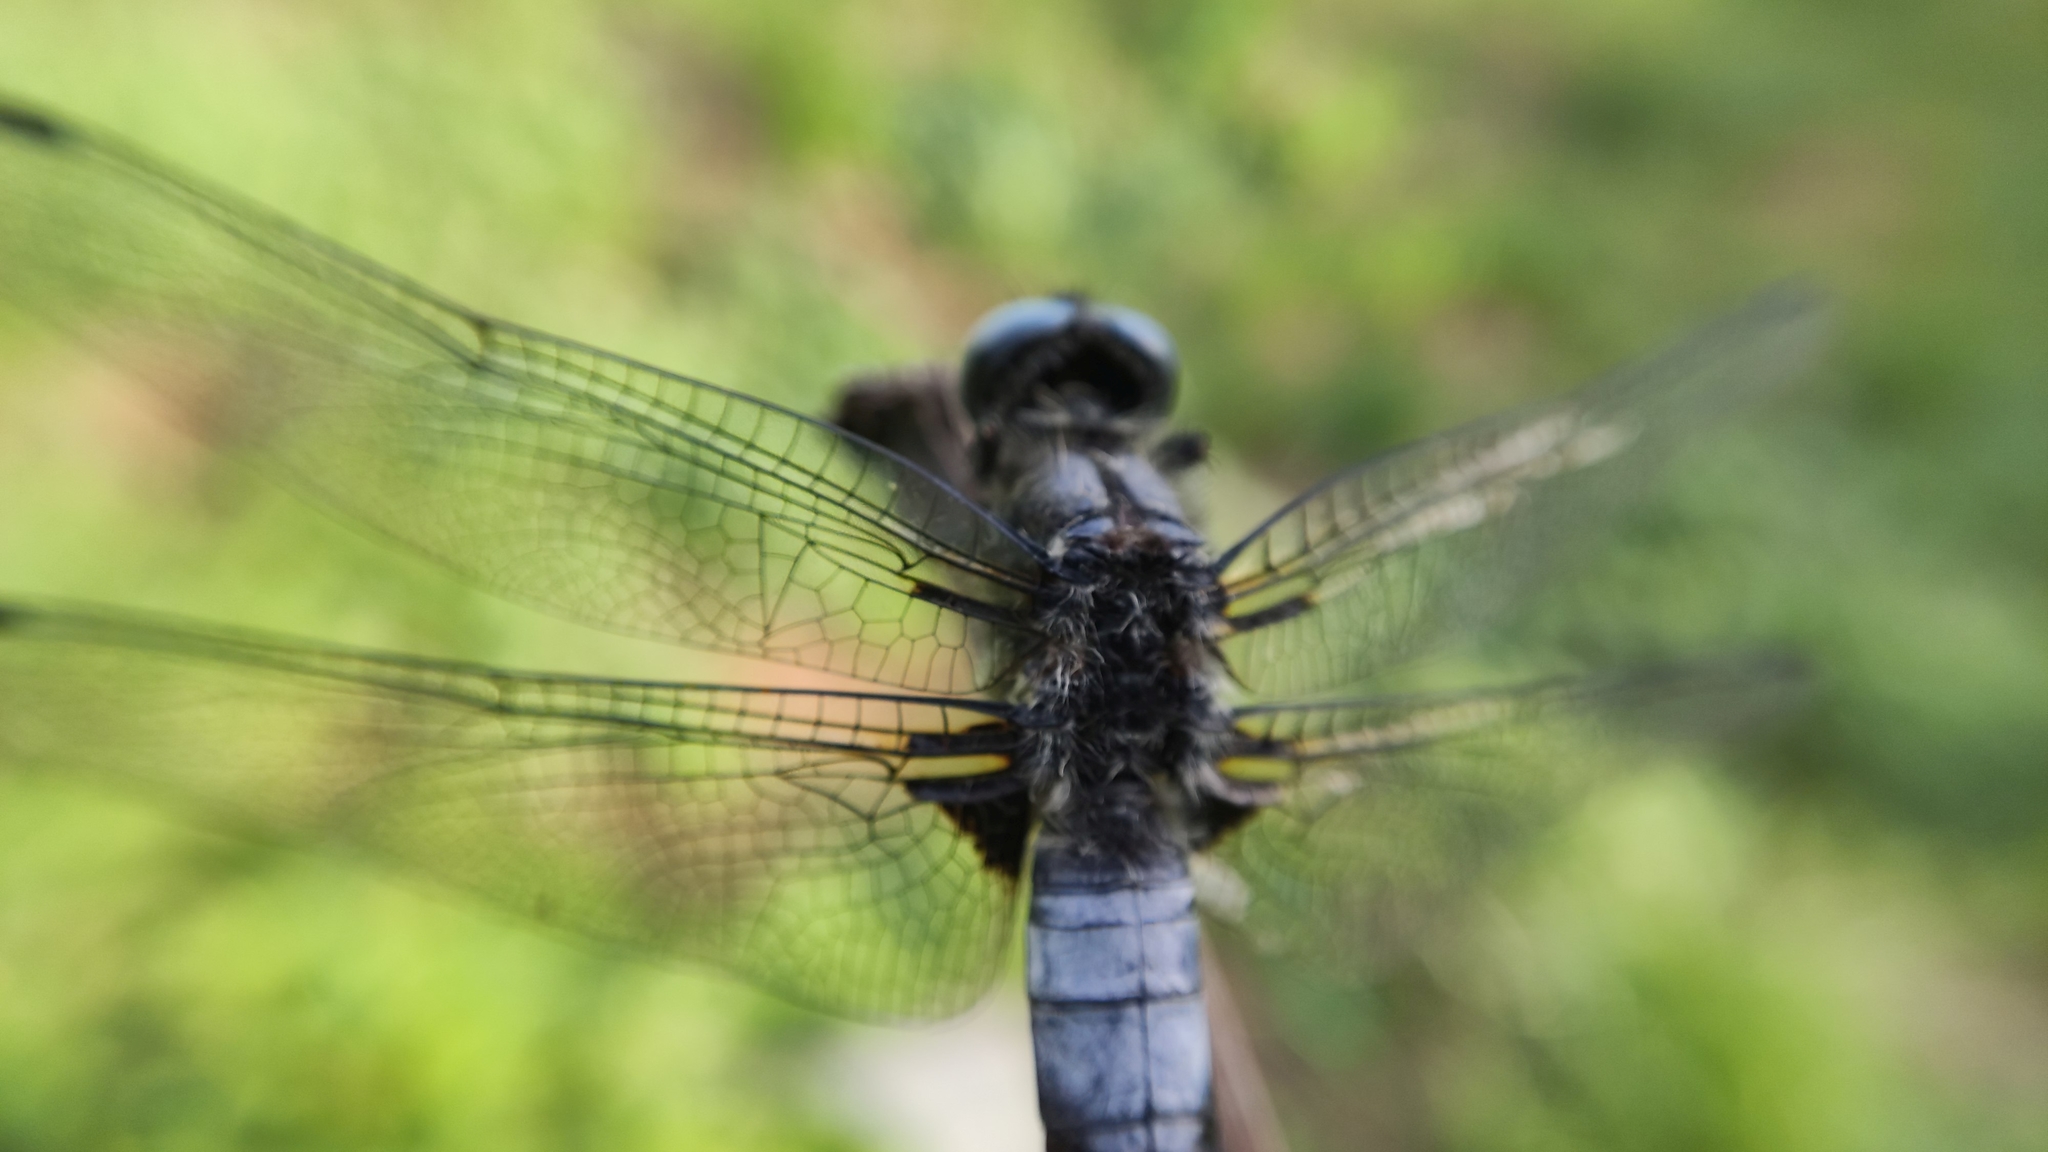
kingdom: Animalia
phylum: Arthropoda
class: Insecta
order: Odonata
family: Libellulidae
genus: Libellula
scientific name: Libellula fulva
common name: Blue chaser
